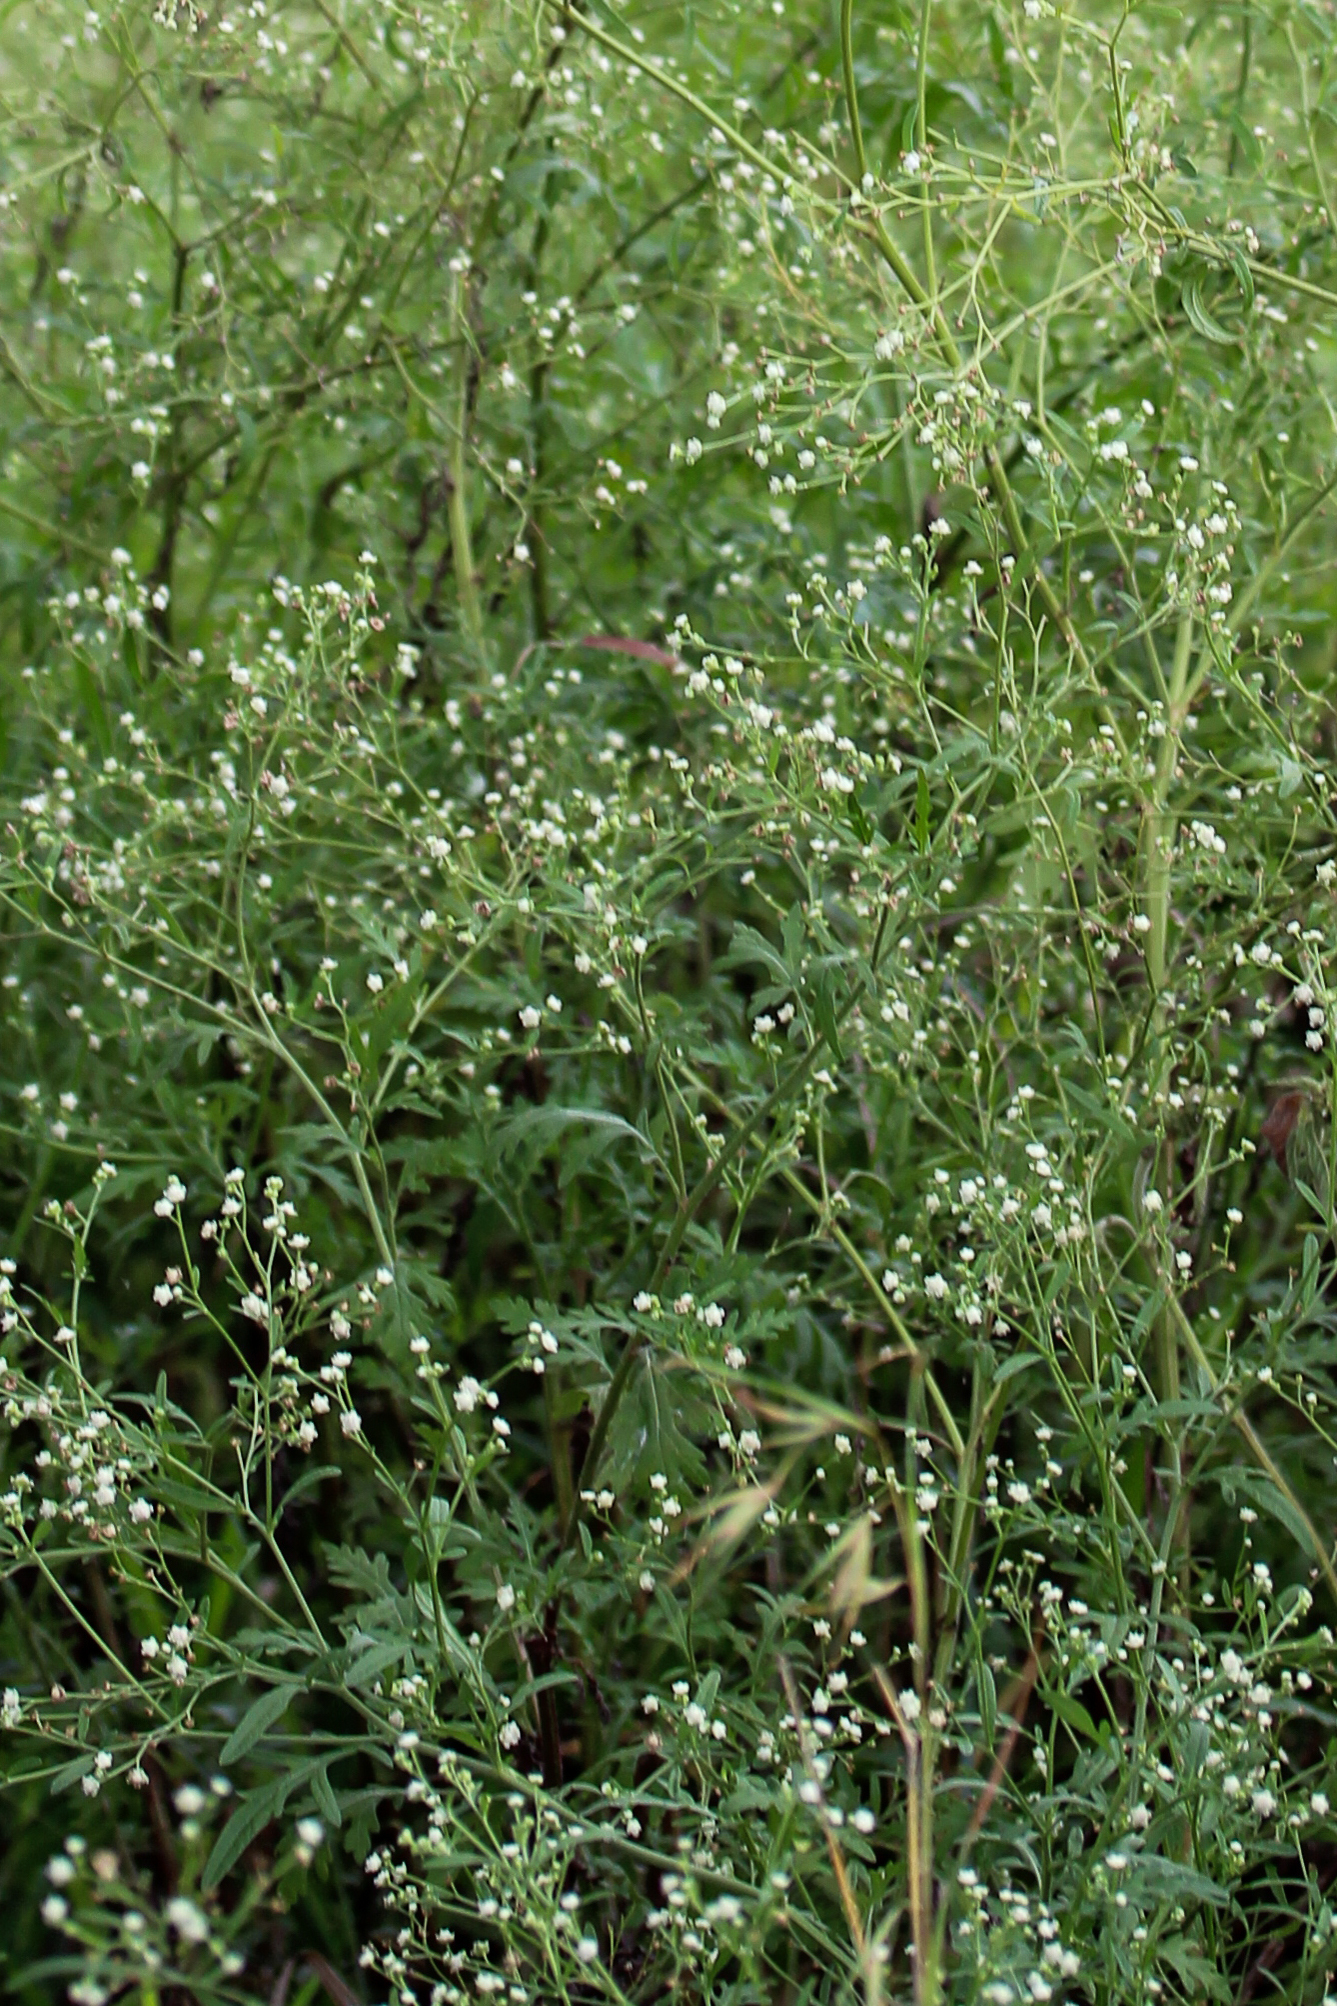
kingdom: Plantae
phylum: Tracheophyta
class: Magnoliopsida
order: Asterales
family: Asteraceae
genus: Parthenium
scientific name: Parthenium hysterophorus
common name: Santa maria feverfew
